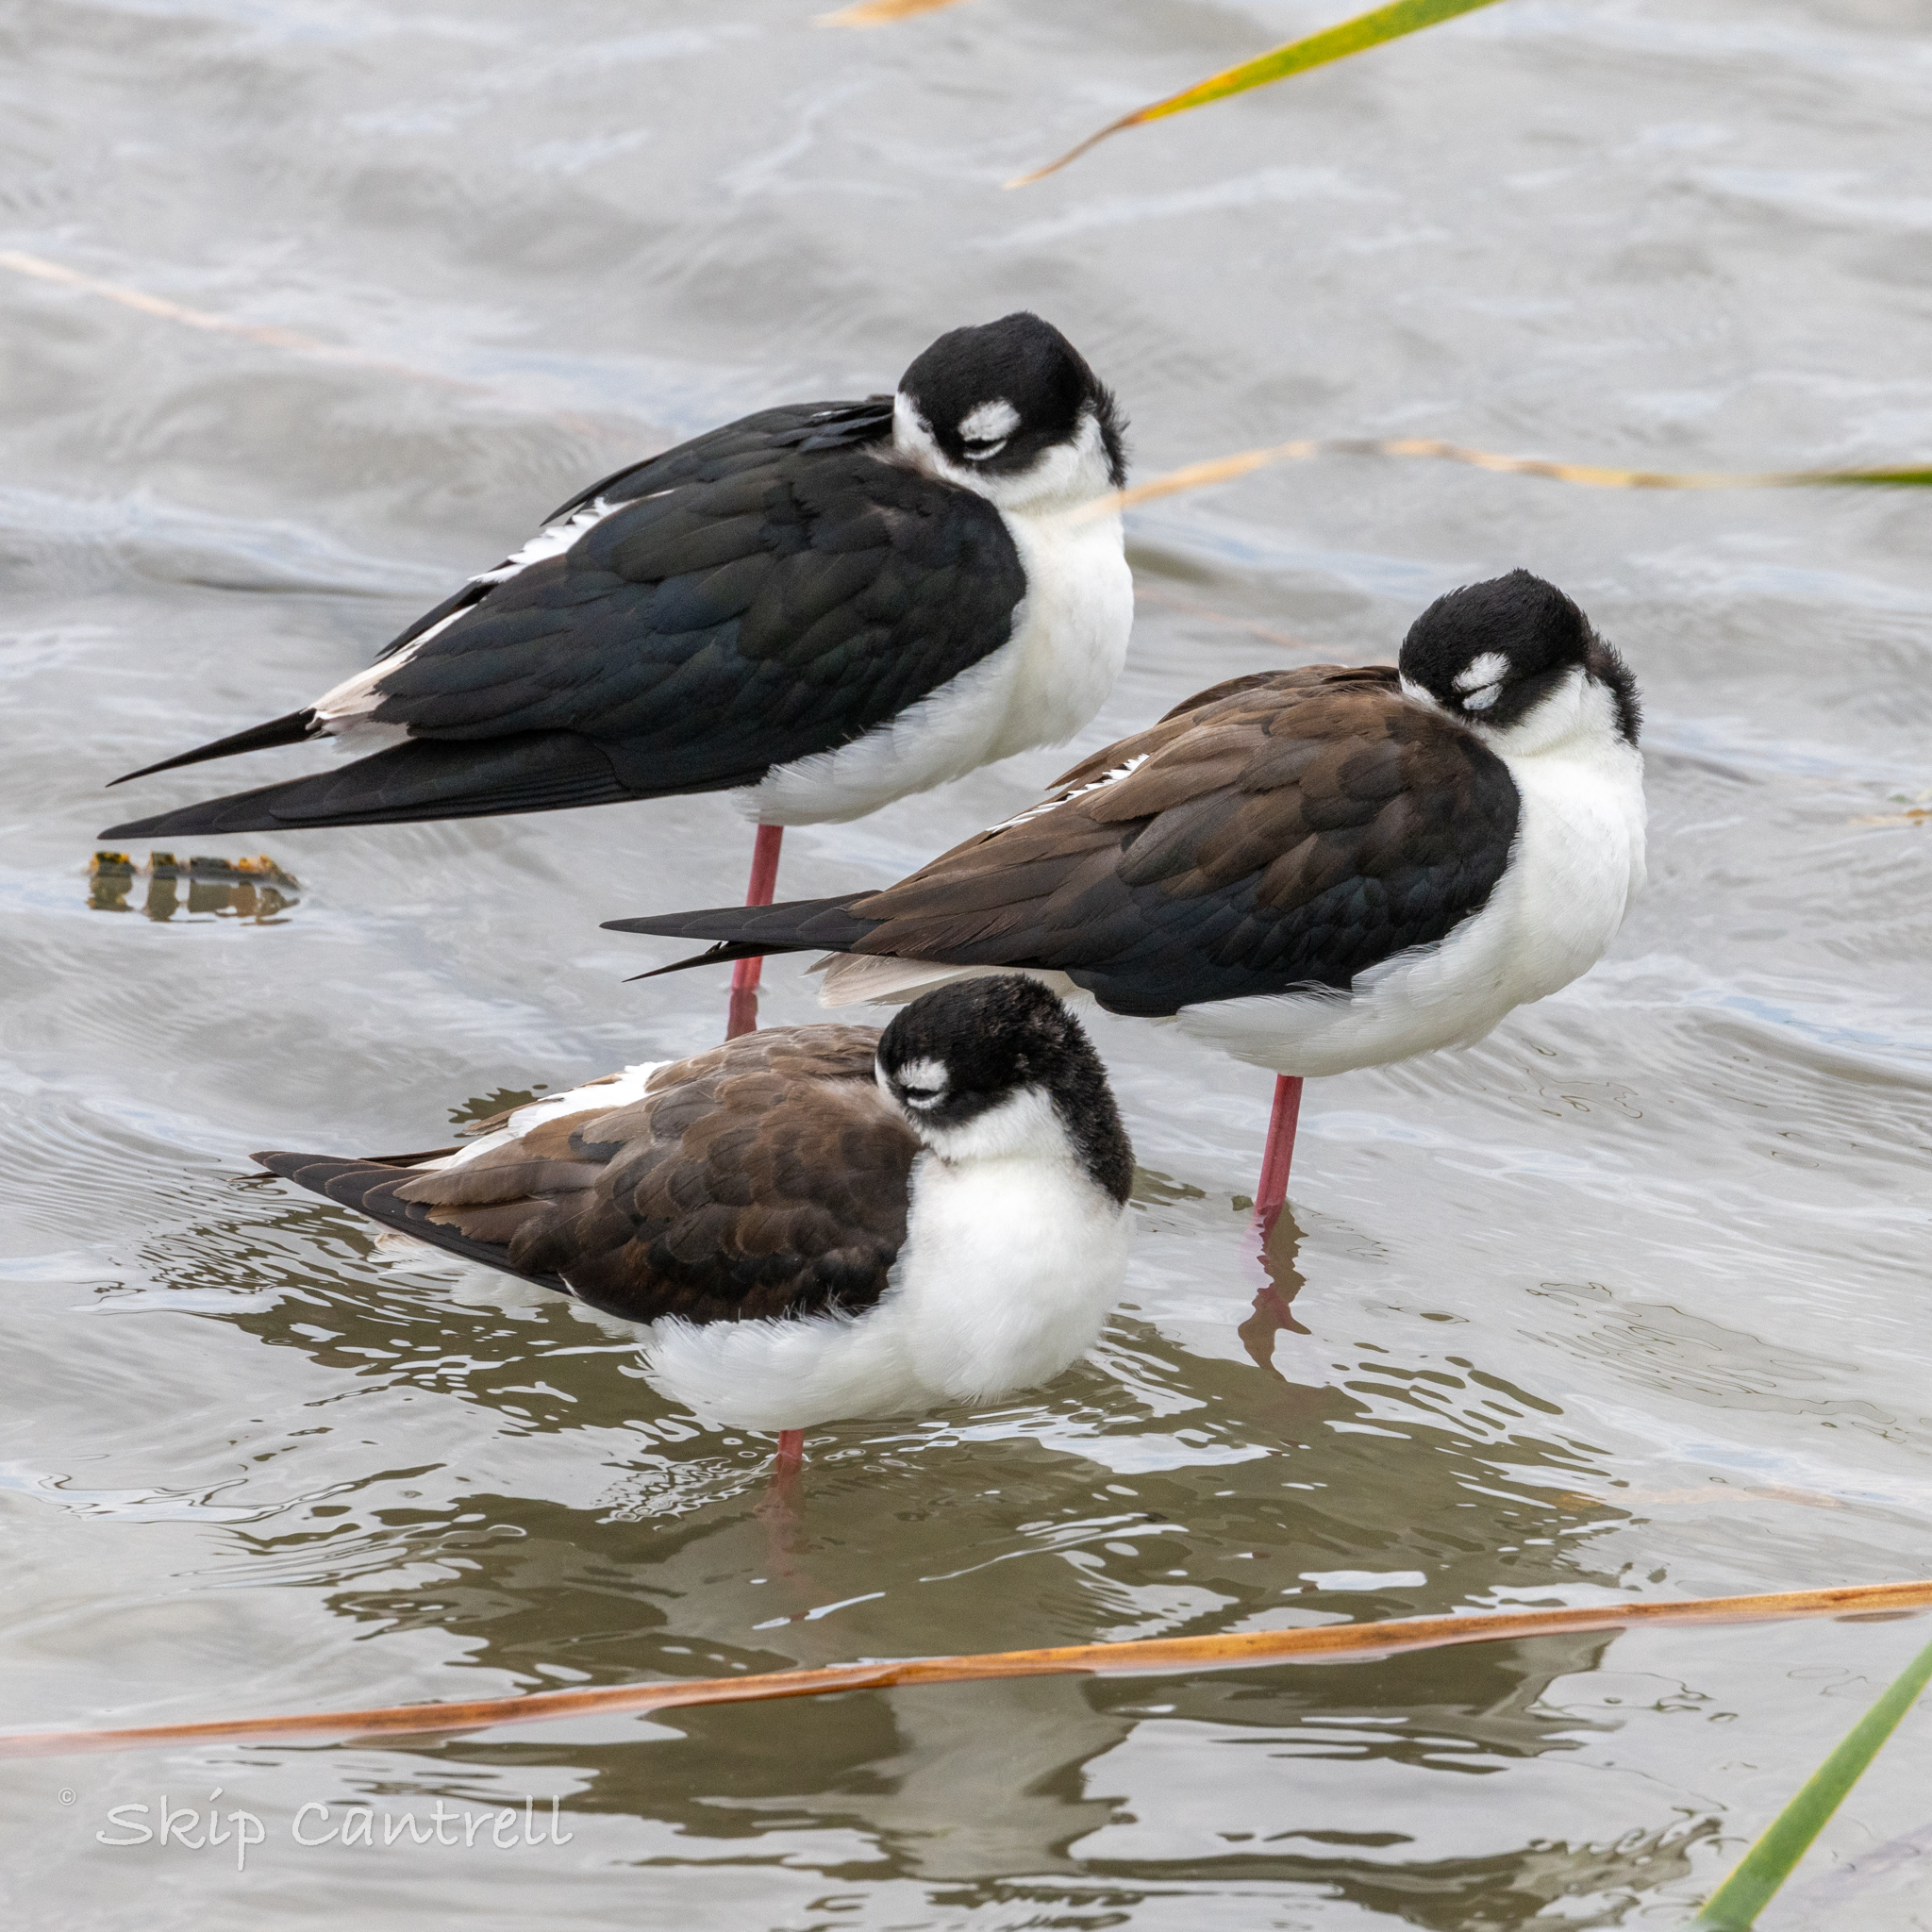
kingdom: Animalia
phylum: Chordata
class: Aves
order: Charadriiformes
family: Recurvirostridae
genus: Himantopus
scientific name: Himantopus mexicanus
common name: Black-necked stilt
